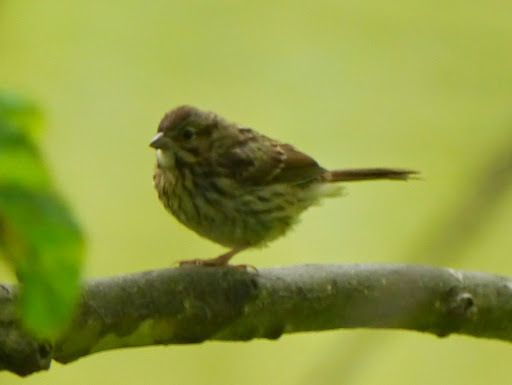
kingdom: Animalia
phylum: Chordata
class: Aves
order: Passeriformes
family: Passerellidae
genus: Melospiza
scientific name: Melospiza melodia
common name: Song sparrow
